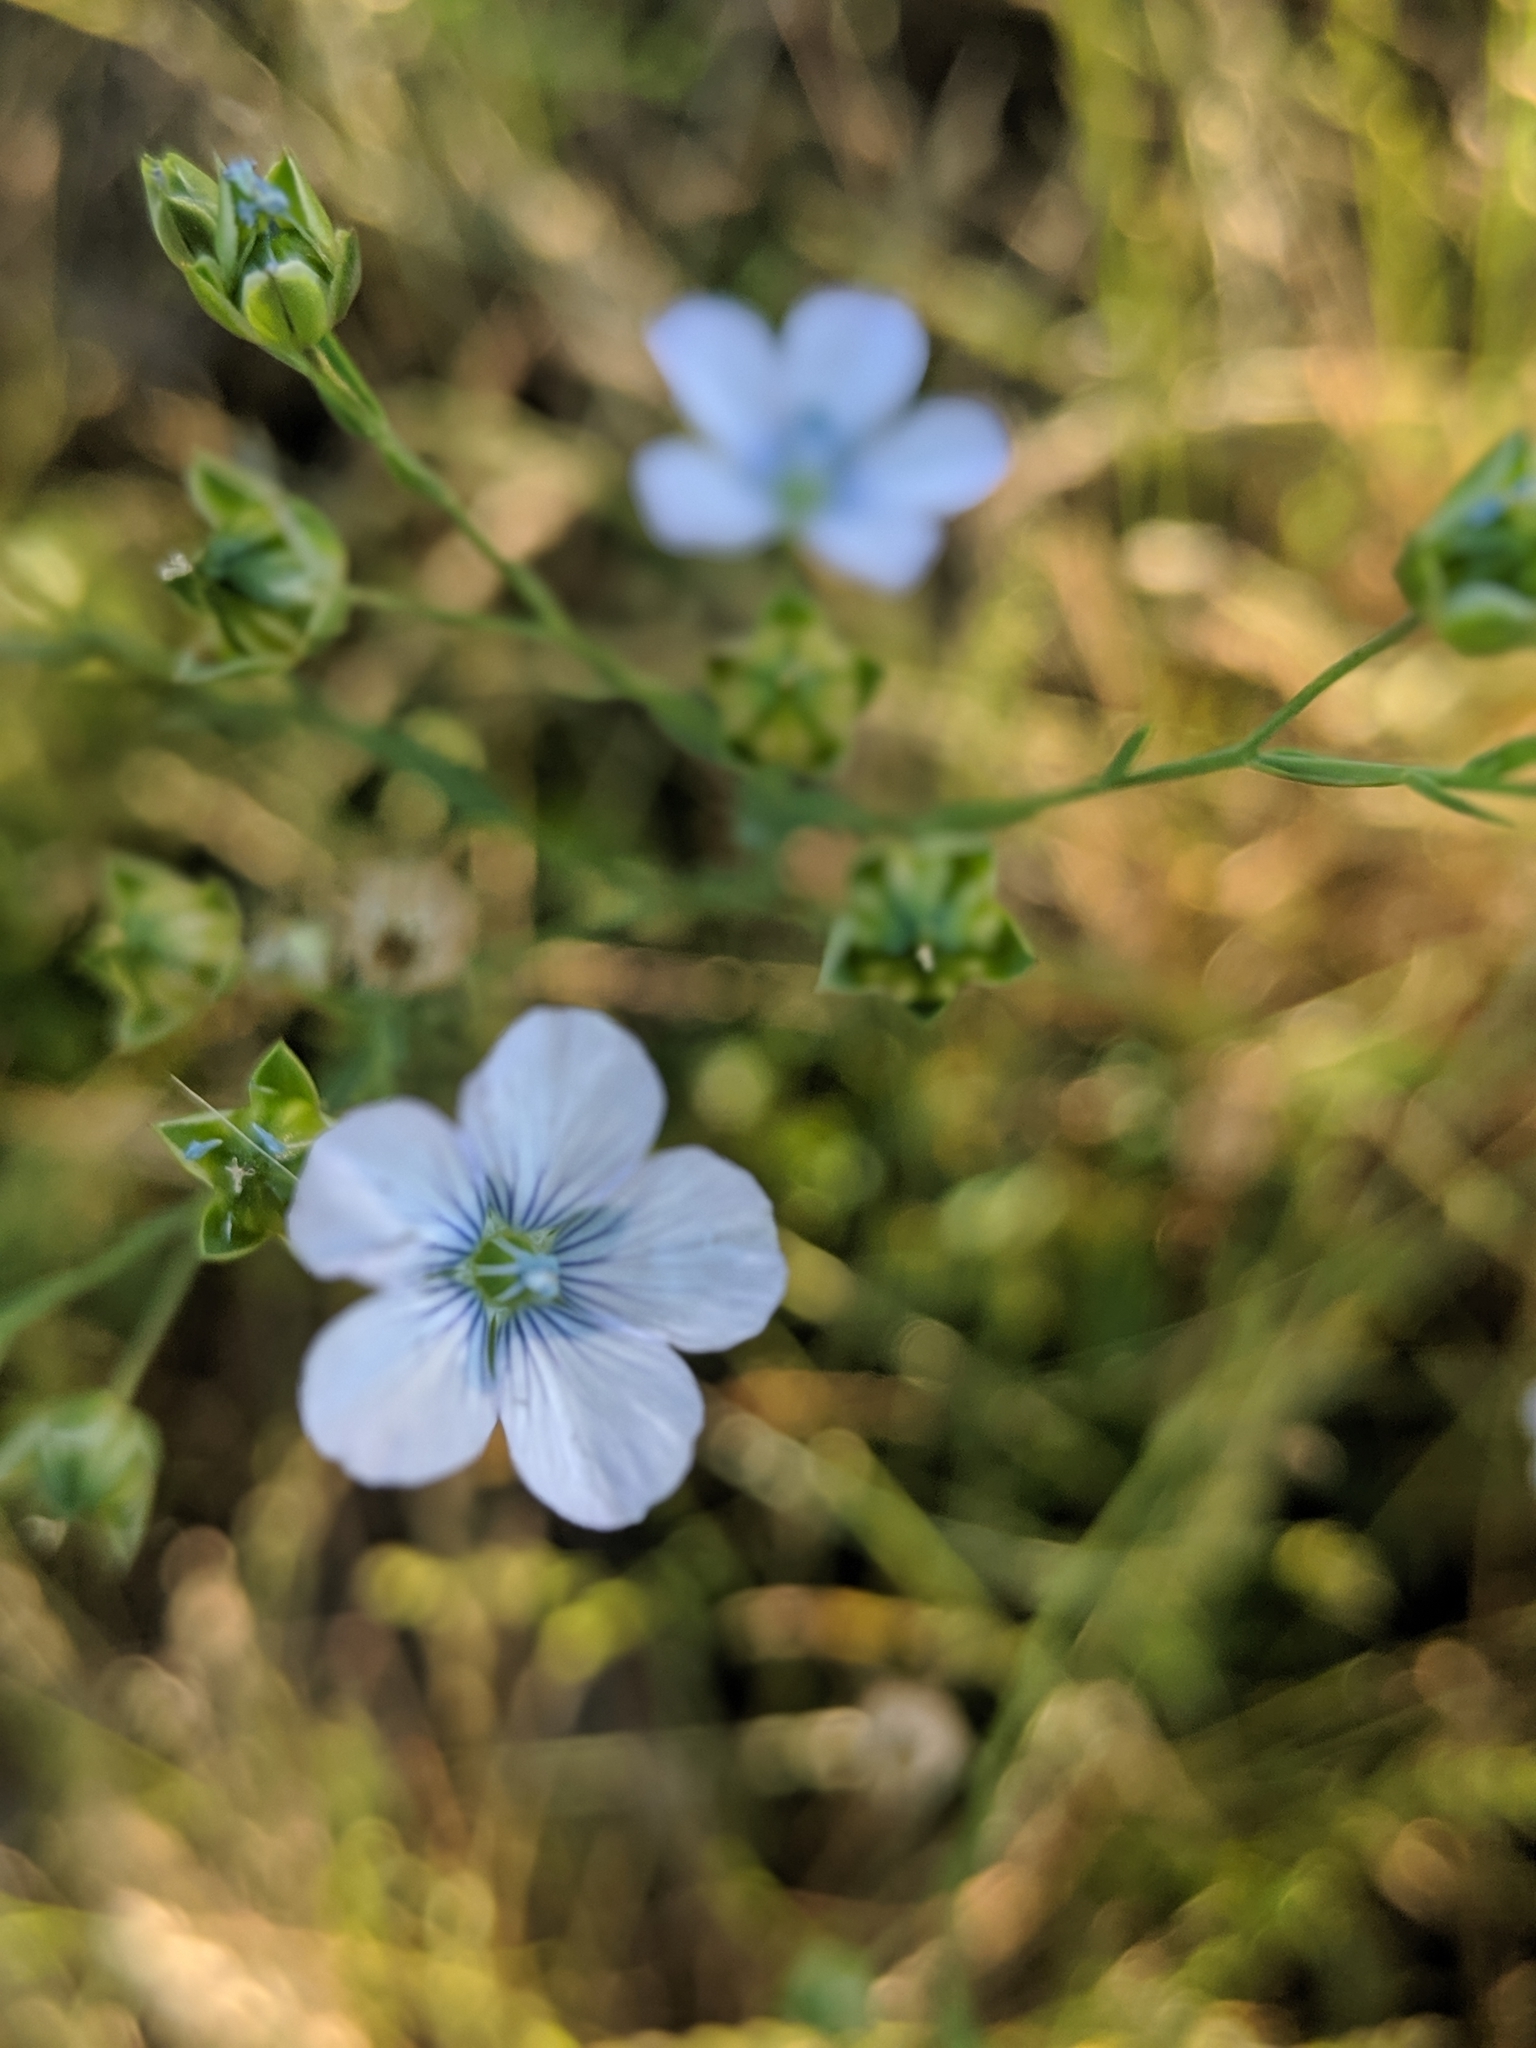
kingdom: Plantae
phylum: Tracheophyta
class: Magnoliopsida
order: Malpighiales
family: Linaceae
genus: Linum
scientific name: Linum bienne
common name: Pale flax
